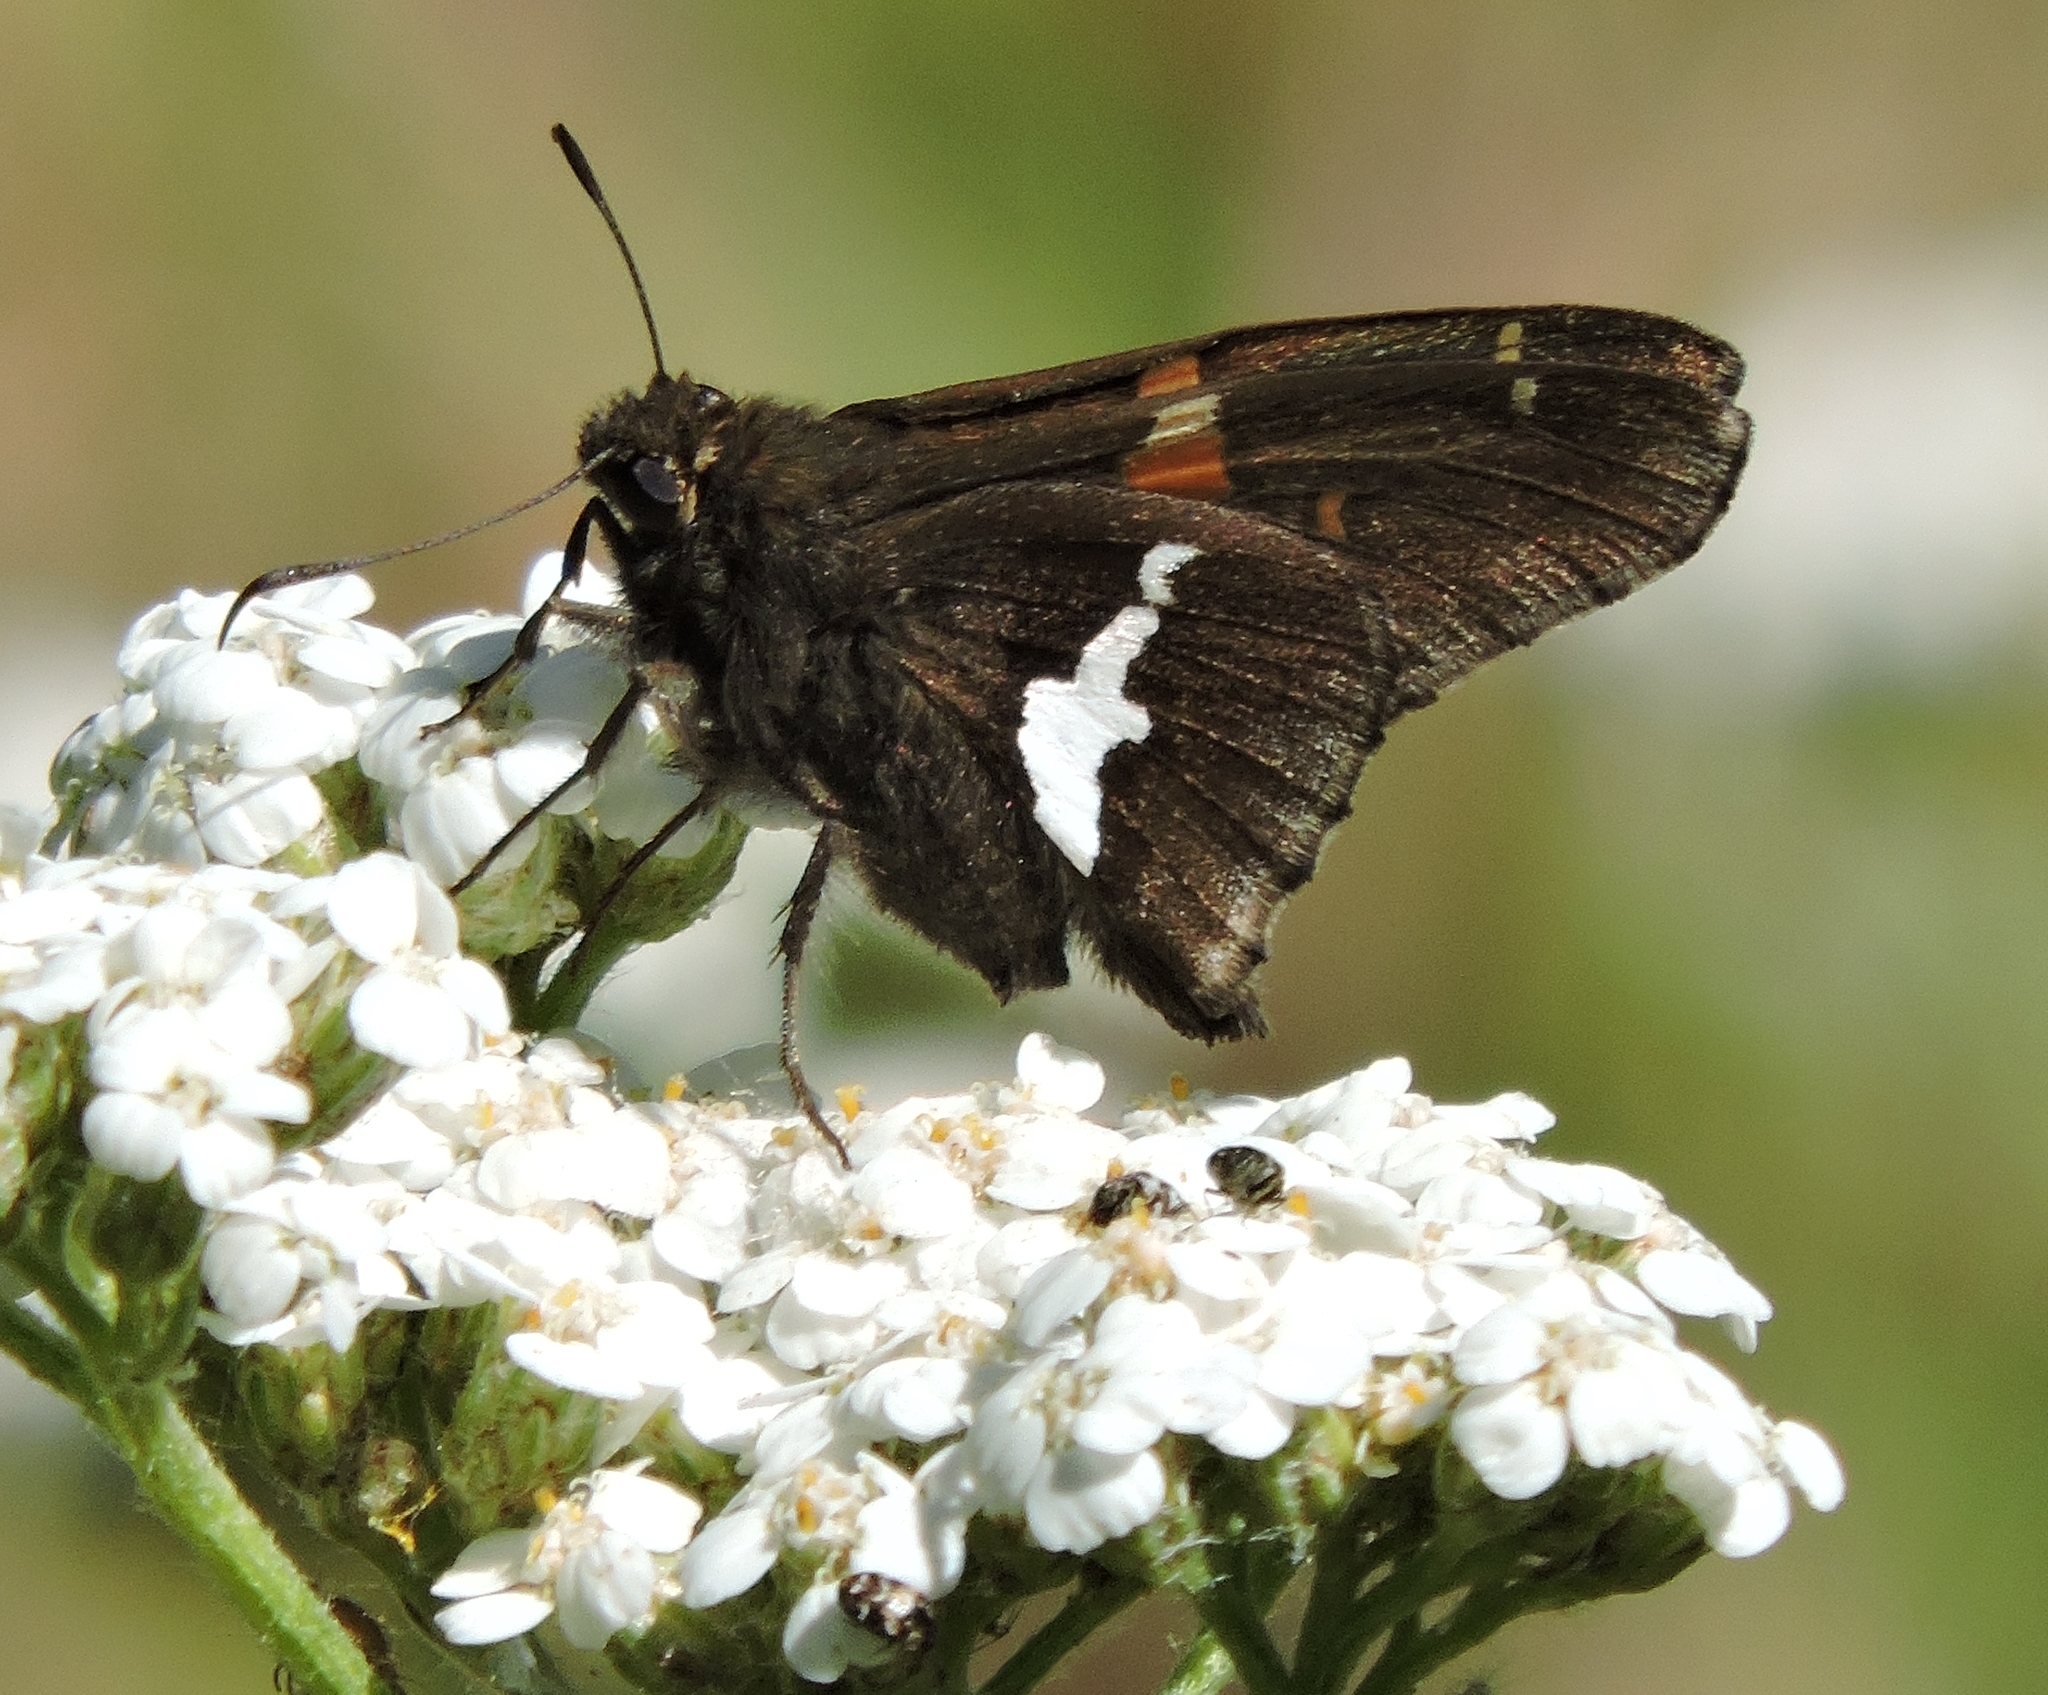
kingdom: Animalia
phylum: Arthropoda
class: Insecta
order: Lepidoptera
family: Hesperiidae
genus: Epargyreus
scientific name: Epargyreus clarus
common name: Silver-spotted skipper
